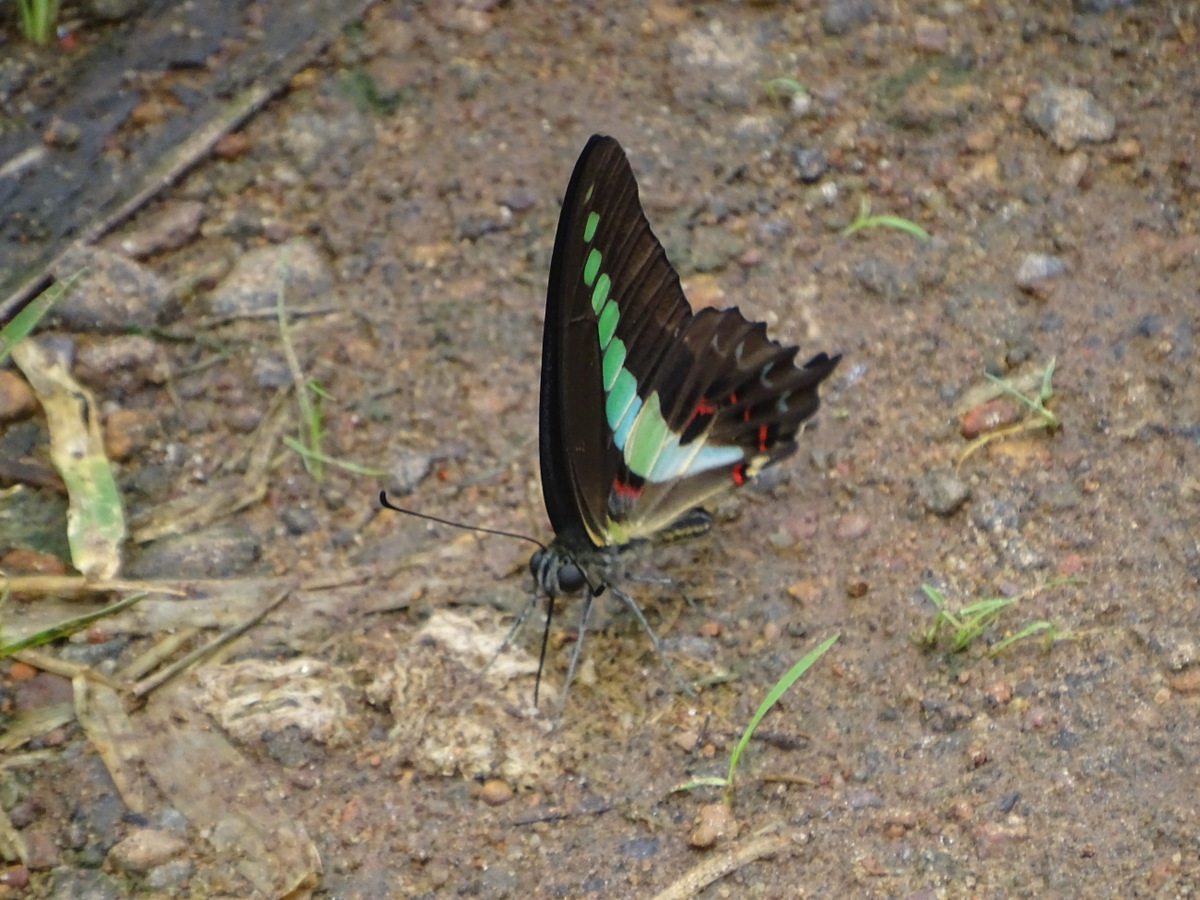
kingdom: Animalia
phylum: Arthropoda
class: Insecta
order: Lepidoptera
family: Papilionidae
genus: Graphium
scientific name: Graphium
